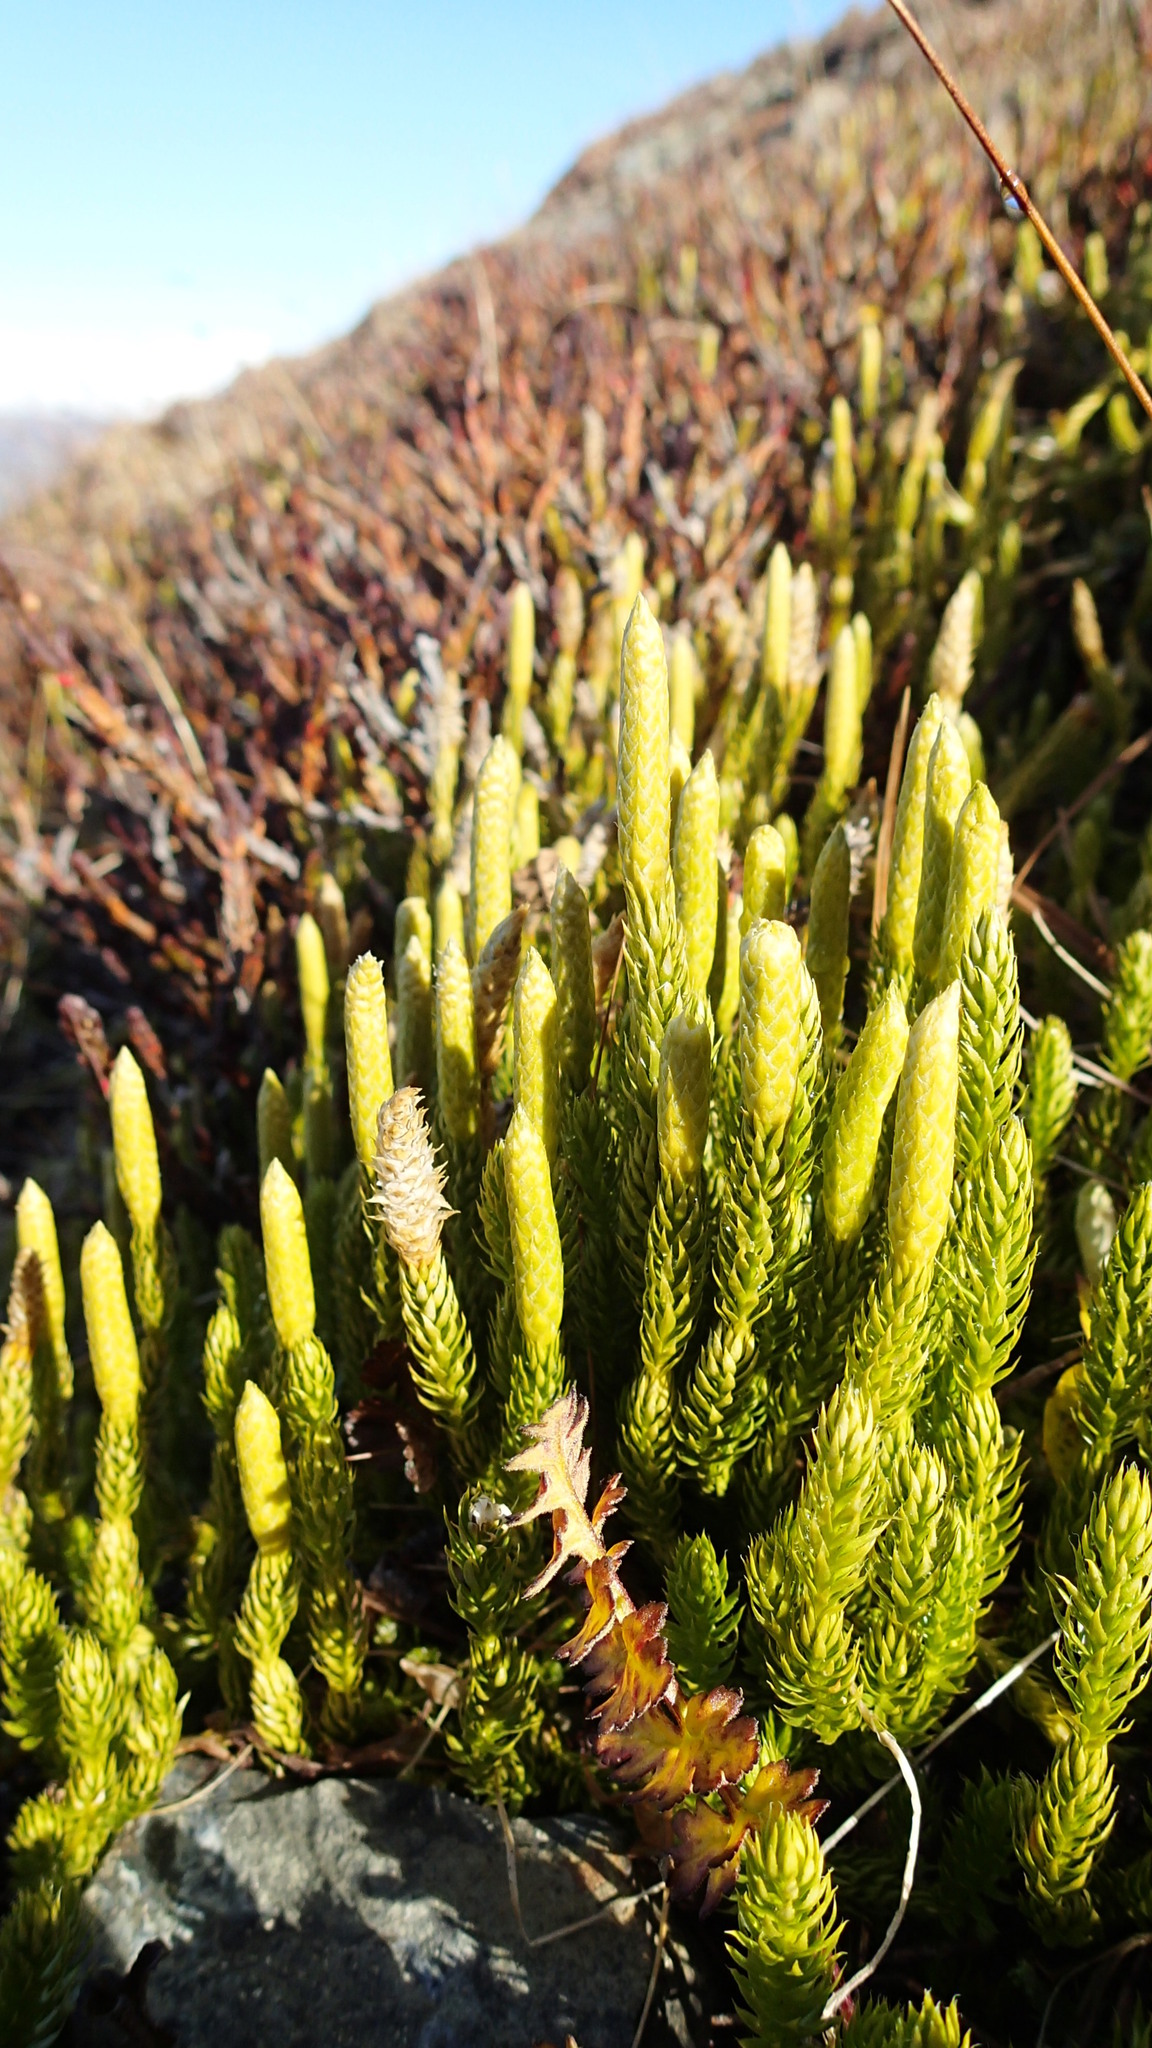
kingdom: Plantae
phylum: Tracheophyta
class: Lycopodiopsida
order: Lycopodiales
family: Lycopodiaceae
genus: Lycopodium
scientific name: Lycopodium lagopus
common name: One-cone clubmoss
